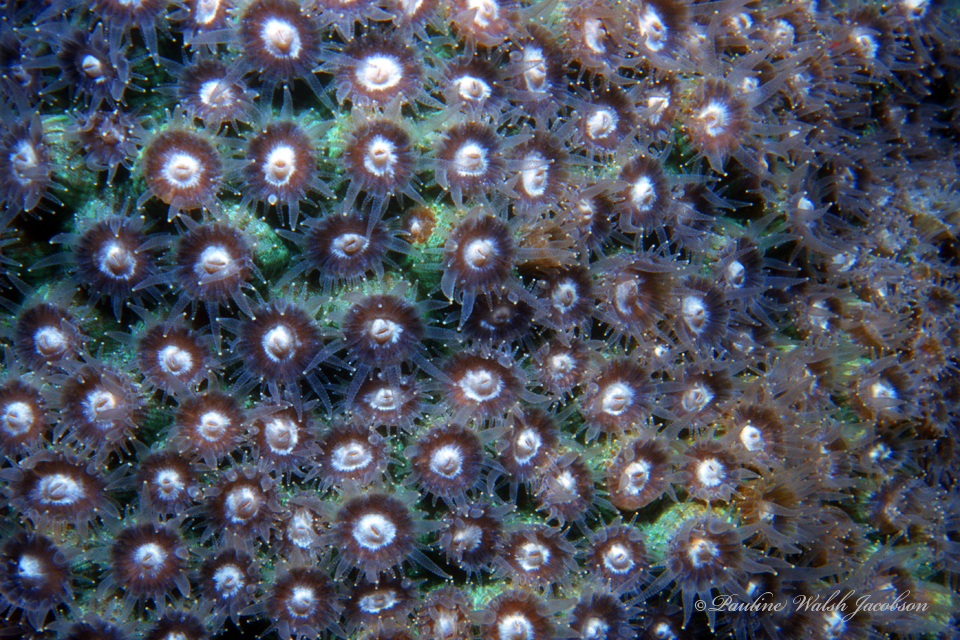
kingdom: Animalia
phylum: Cnidaria
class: Anthozoa
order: Scleractinia
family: Montastraeidae
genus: Montastraea
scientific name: Montastraea cavernosa
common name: Great star coral
